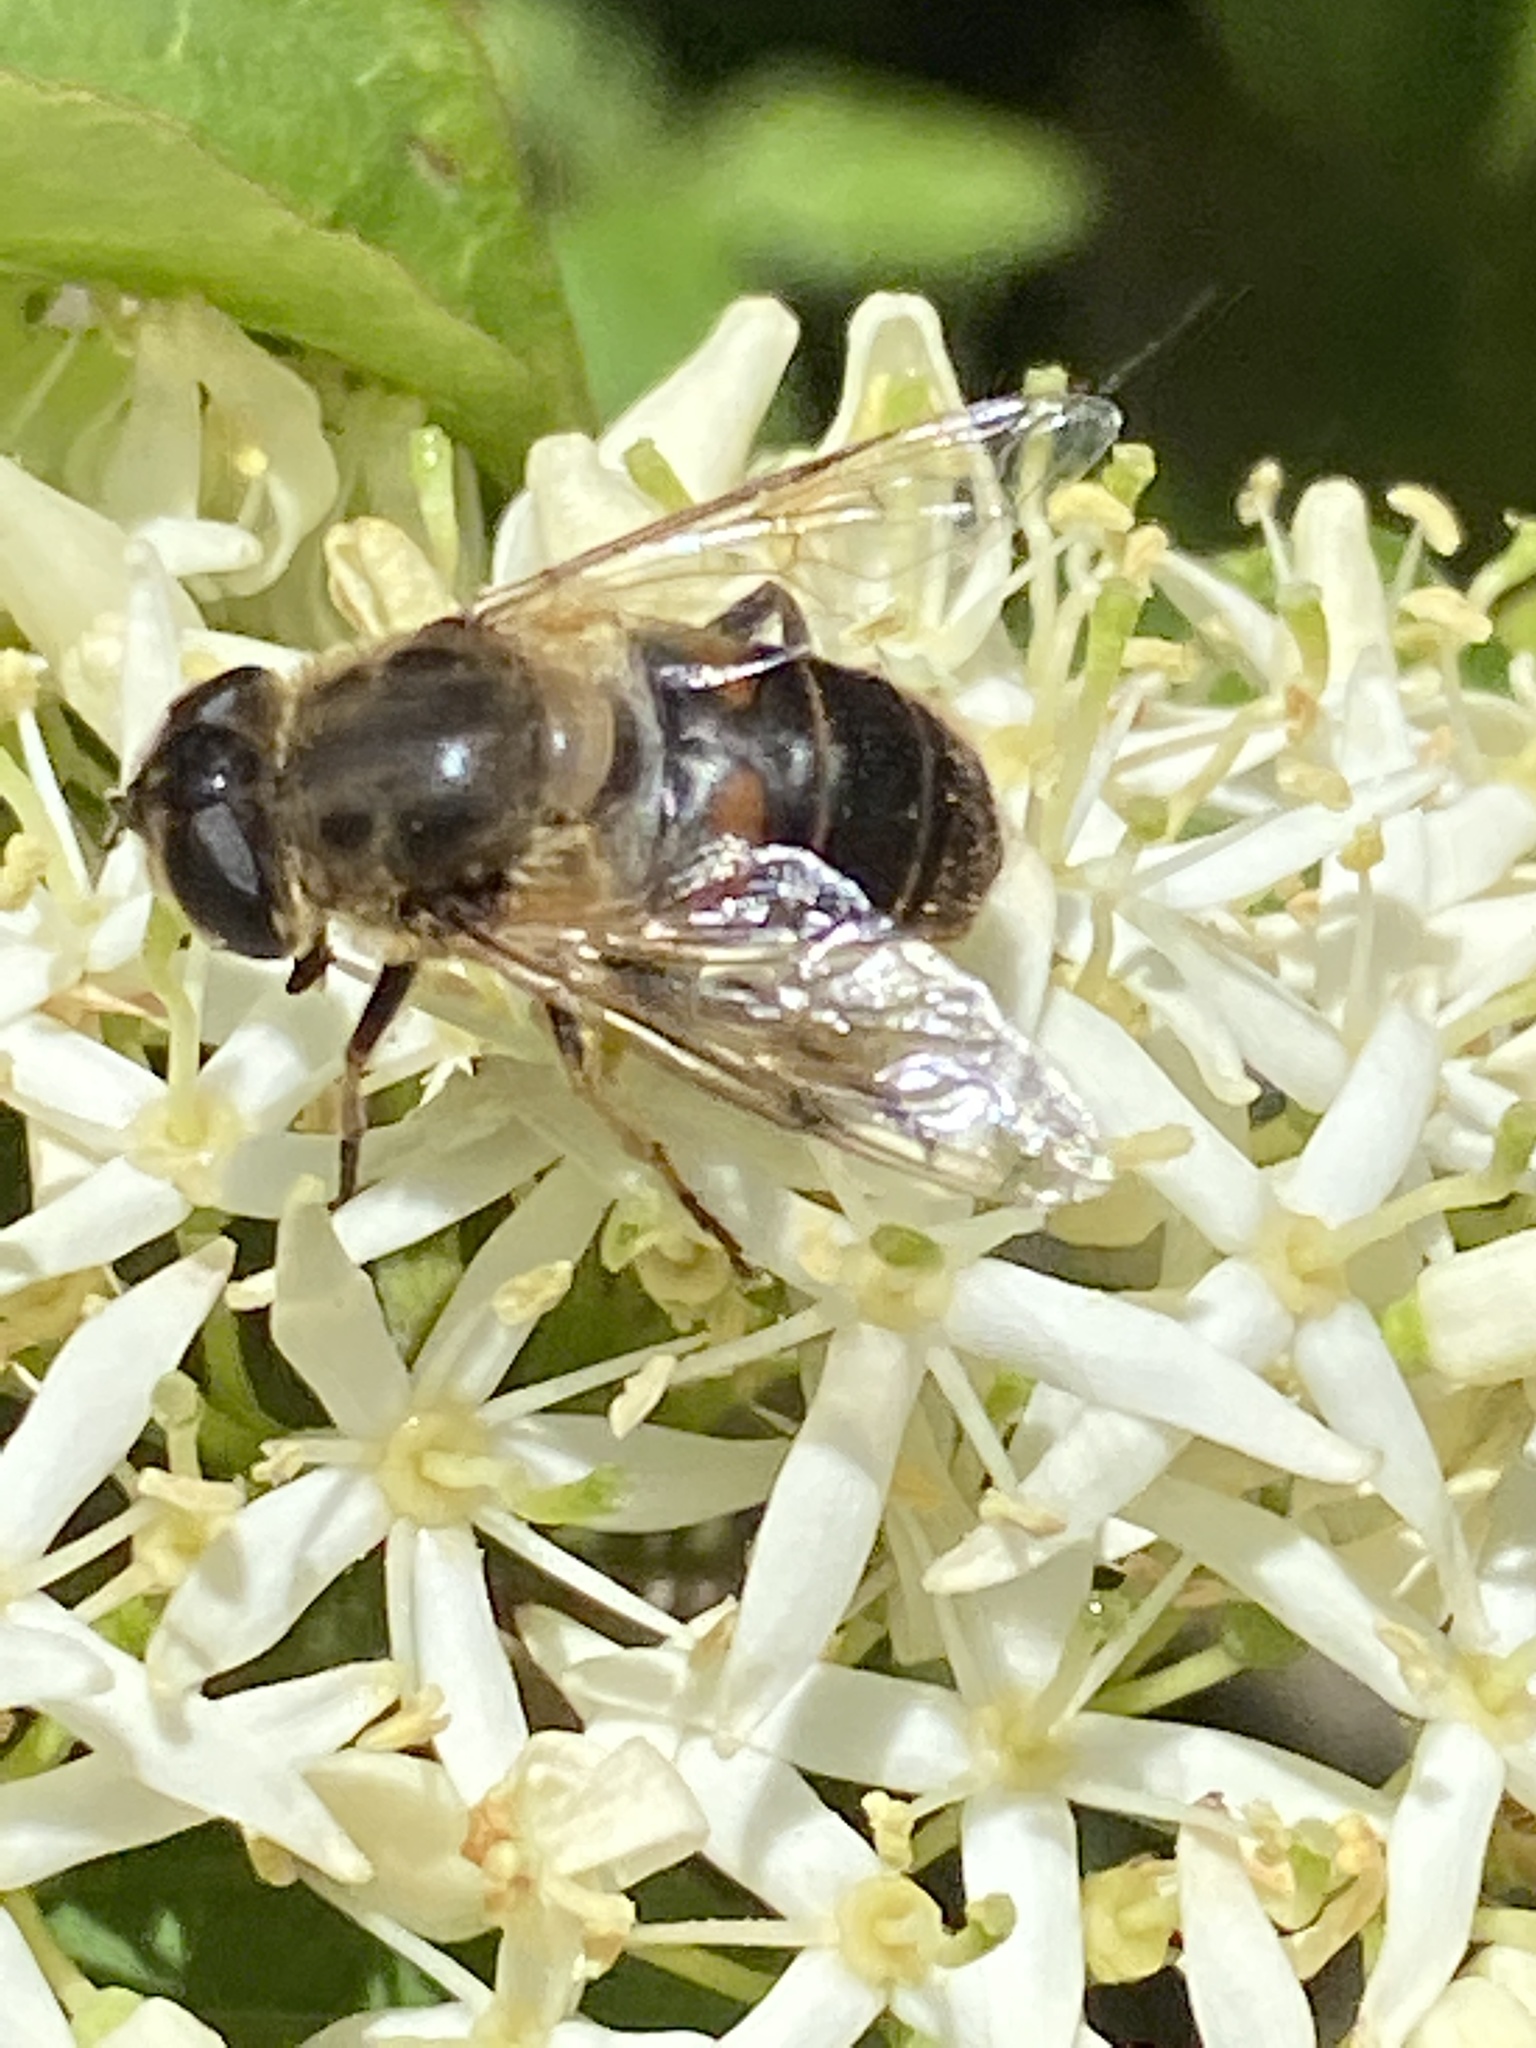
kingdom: Animalia
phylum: Arthropoda
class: Insecta
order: Diptera
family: Syrphidae
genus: Eristalis
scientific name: Eristalis tenax
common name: Drone fly
